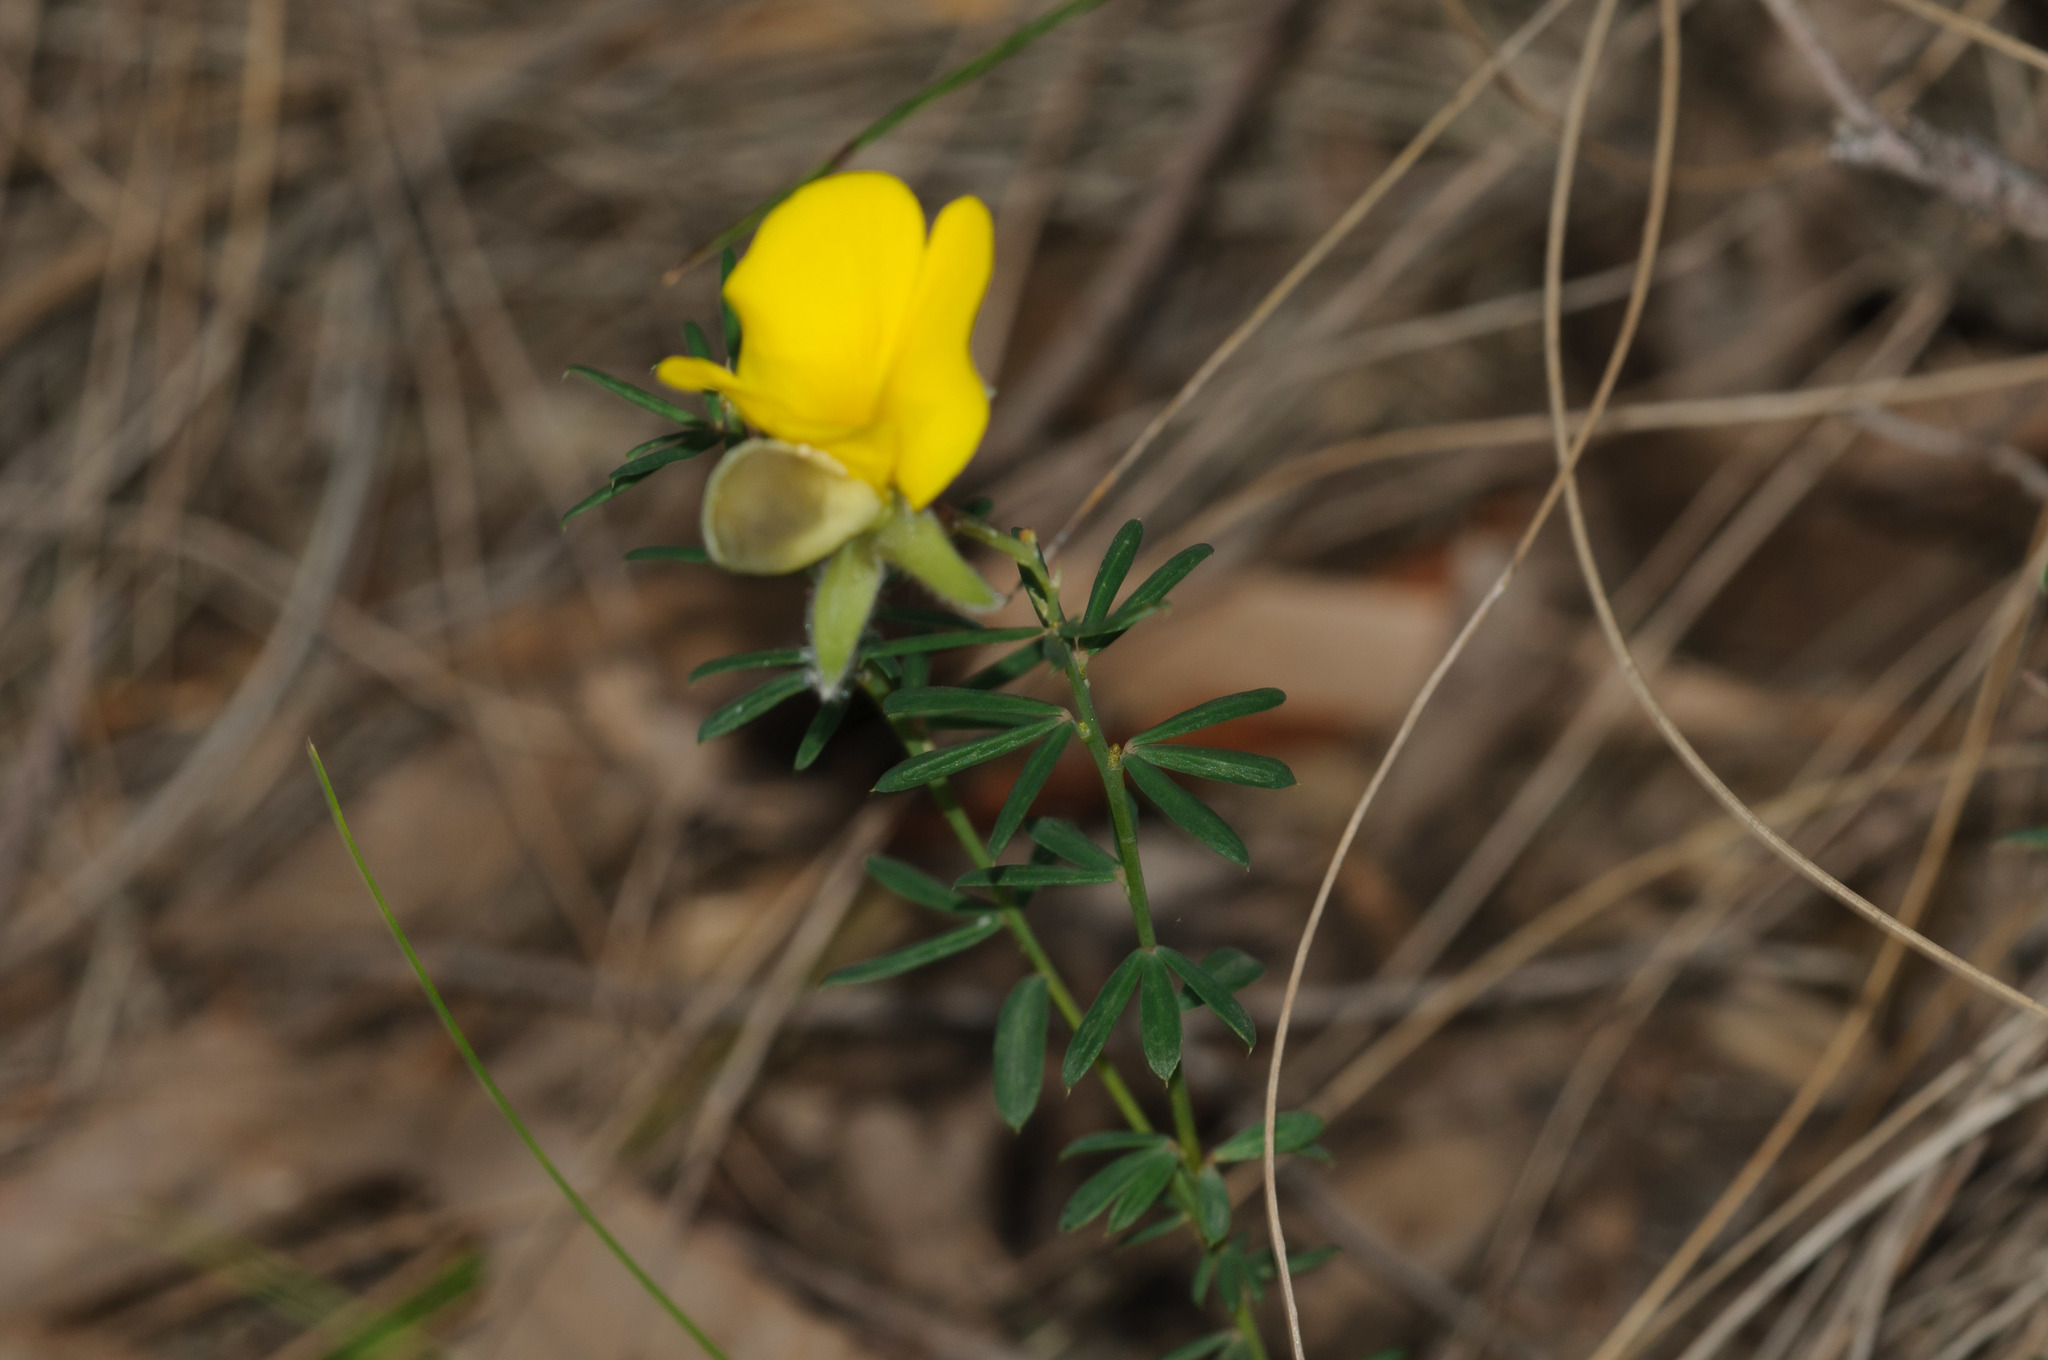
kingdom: Plantae
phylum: Tracheophyta
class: Magnoliopsida
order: Fabales
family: Fabaceae
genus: Gompholobium
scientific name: Gompholobium huegelii
